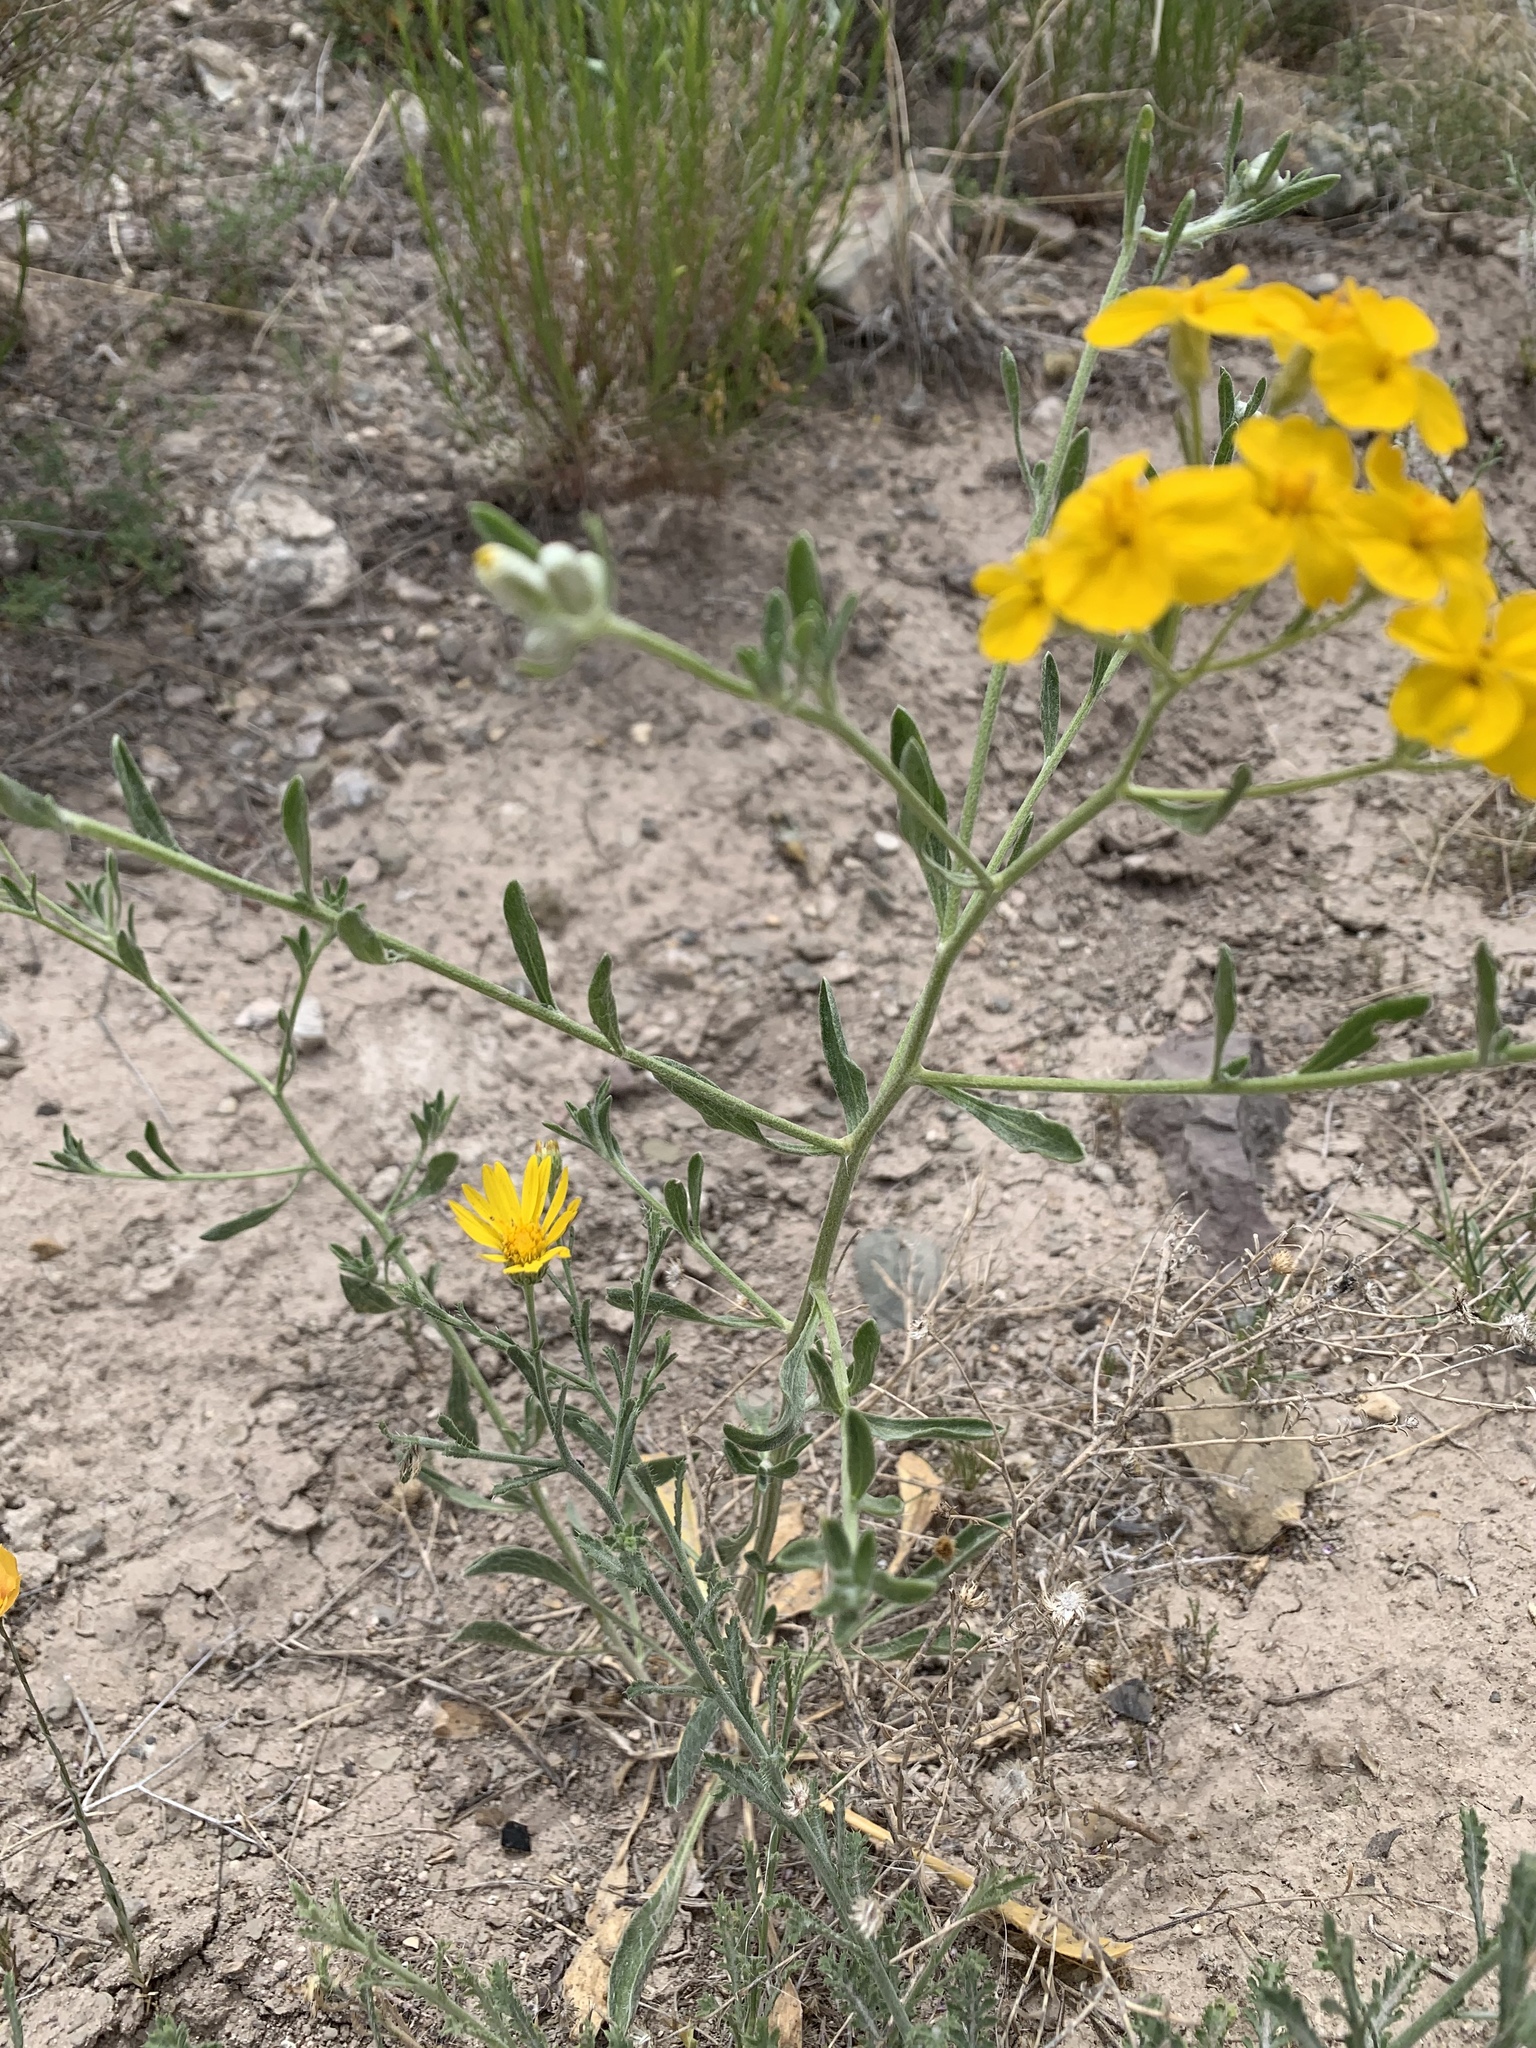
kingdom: Plantae
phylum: Tracheophyta
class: Magnoliopsida
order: Asterales
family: Asteraceae
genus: Psilostrophe
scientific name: Psilostrophe tagetina
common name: Marigold paper-flower
